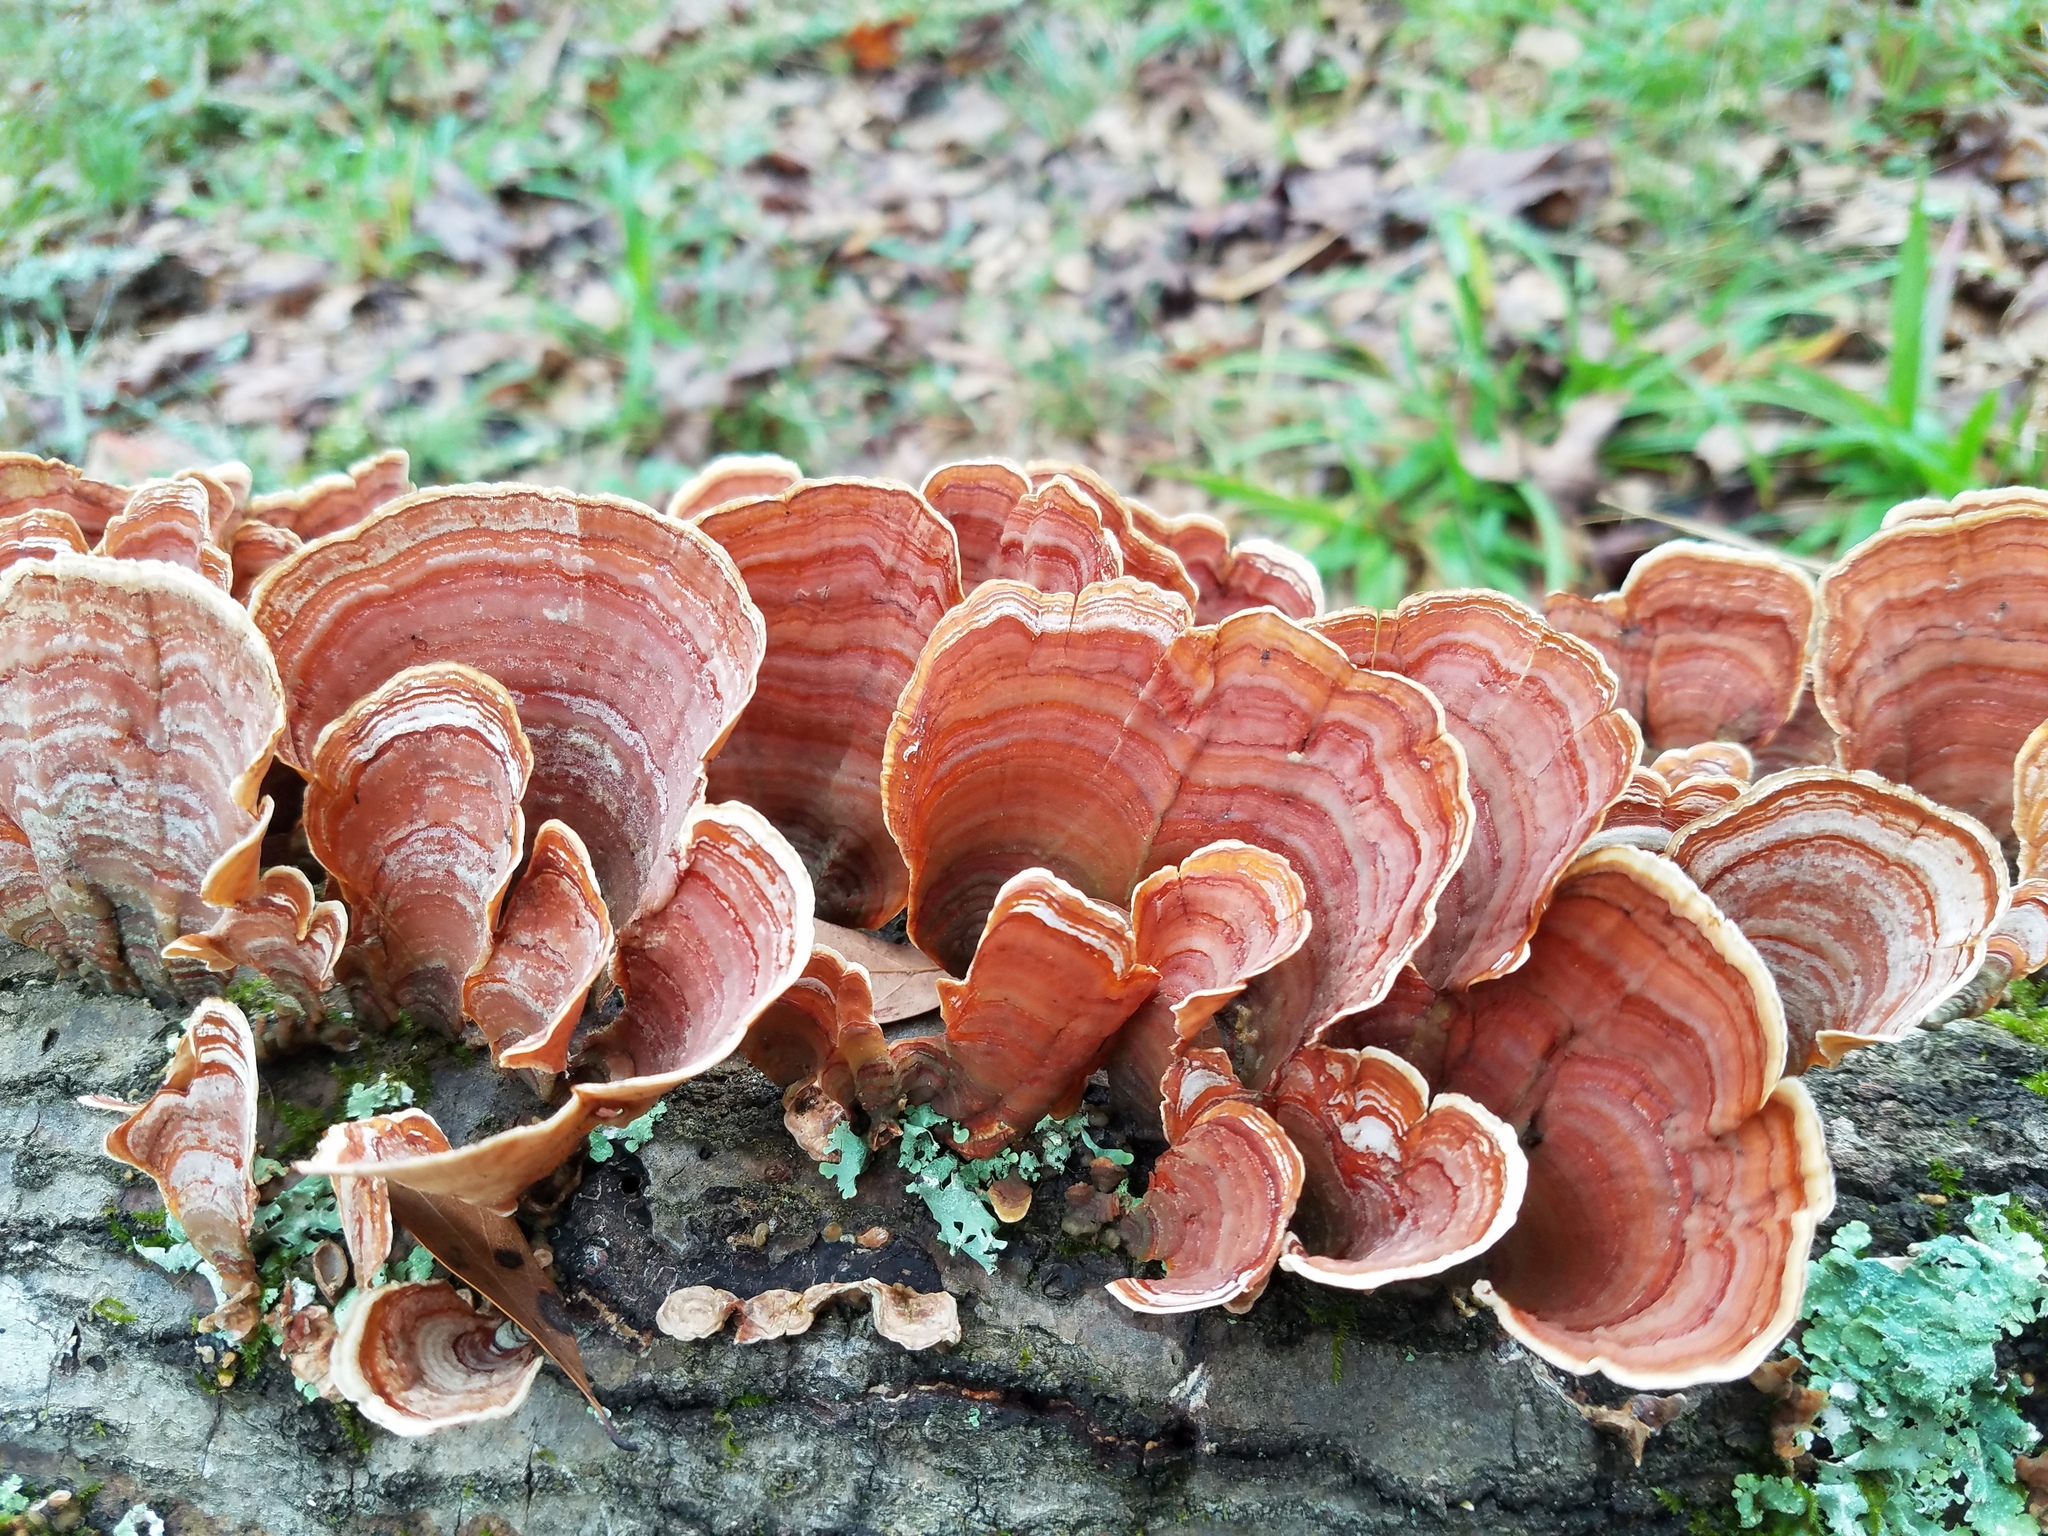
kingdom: Fungi
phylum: Basidiomycota
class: Agaricomycetes
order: Russulales
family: Stereaceae
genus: Stereum
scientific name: Stereum lobatum
